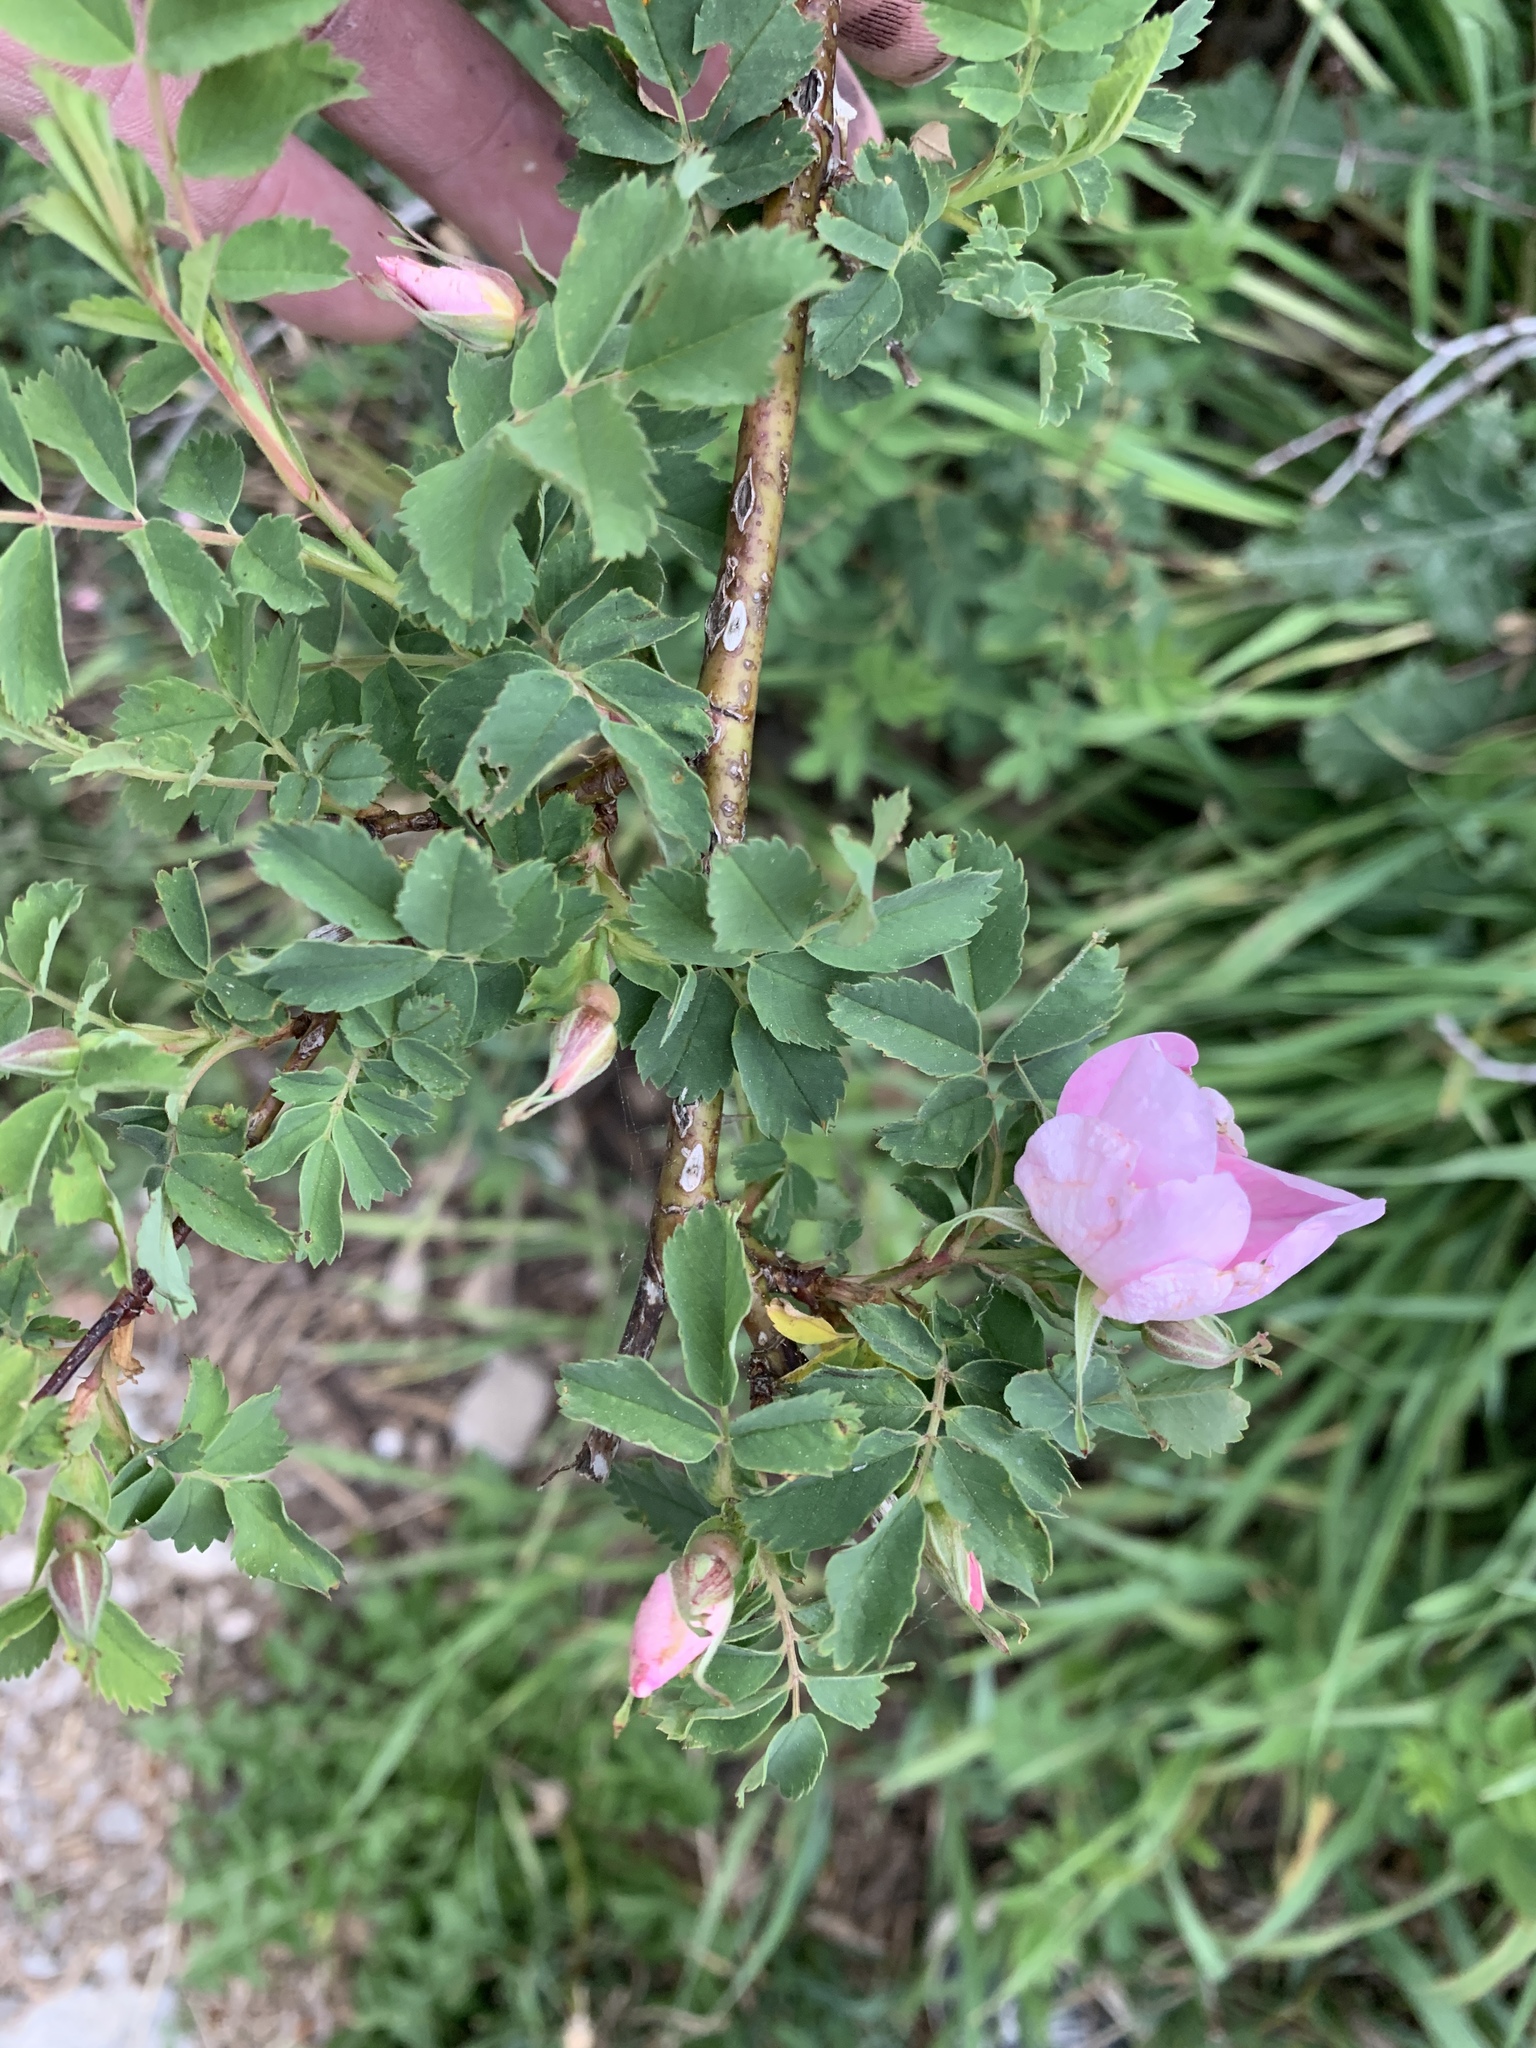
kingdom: Plantae
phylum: Tracheophyta
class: Magnoliopsida
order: Rosales
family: Rosaceae
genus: Rosa
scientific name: Rosa woodsii
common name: Woods's rose
